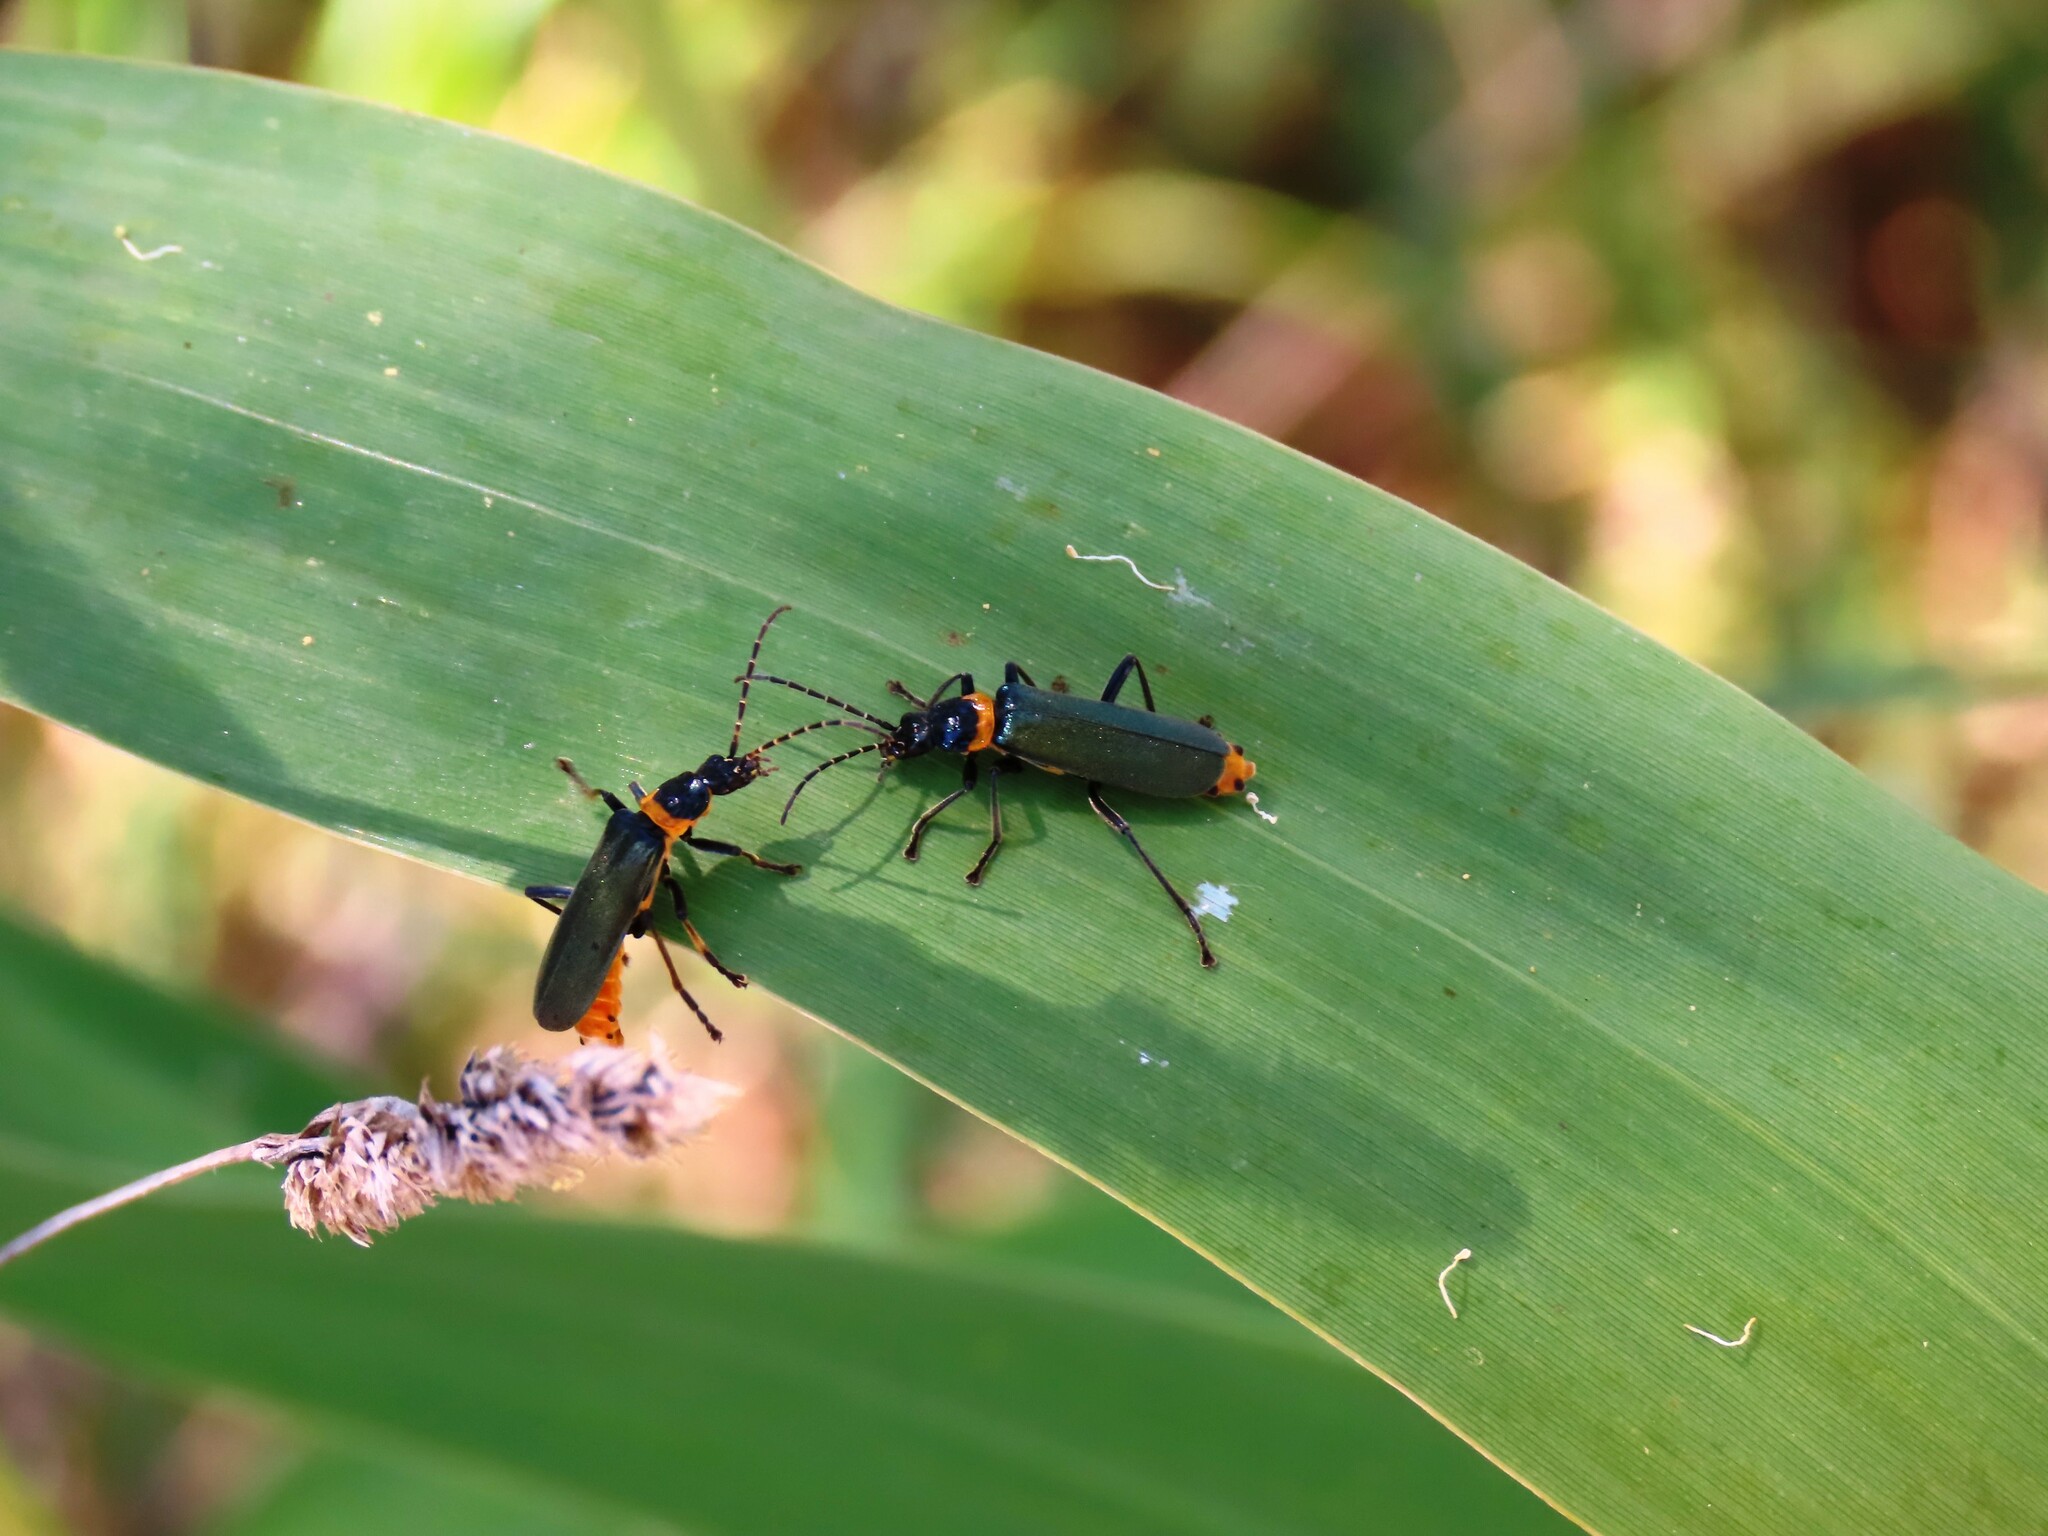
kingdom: Animalia
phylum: Arthropoda
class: Insecta
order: Coleoptera
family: Cantharidae
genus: Chauliognathus
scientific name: Chauliognathus
